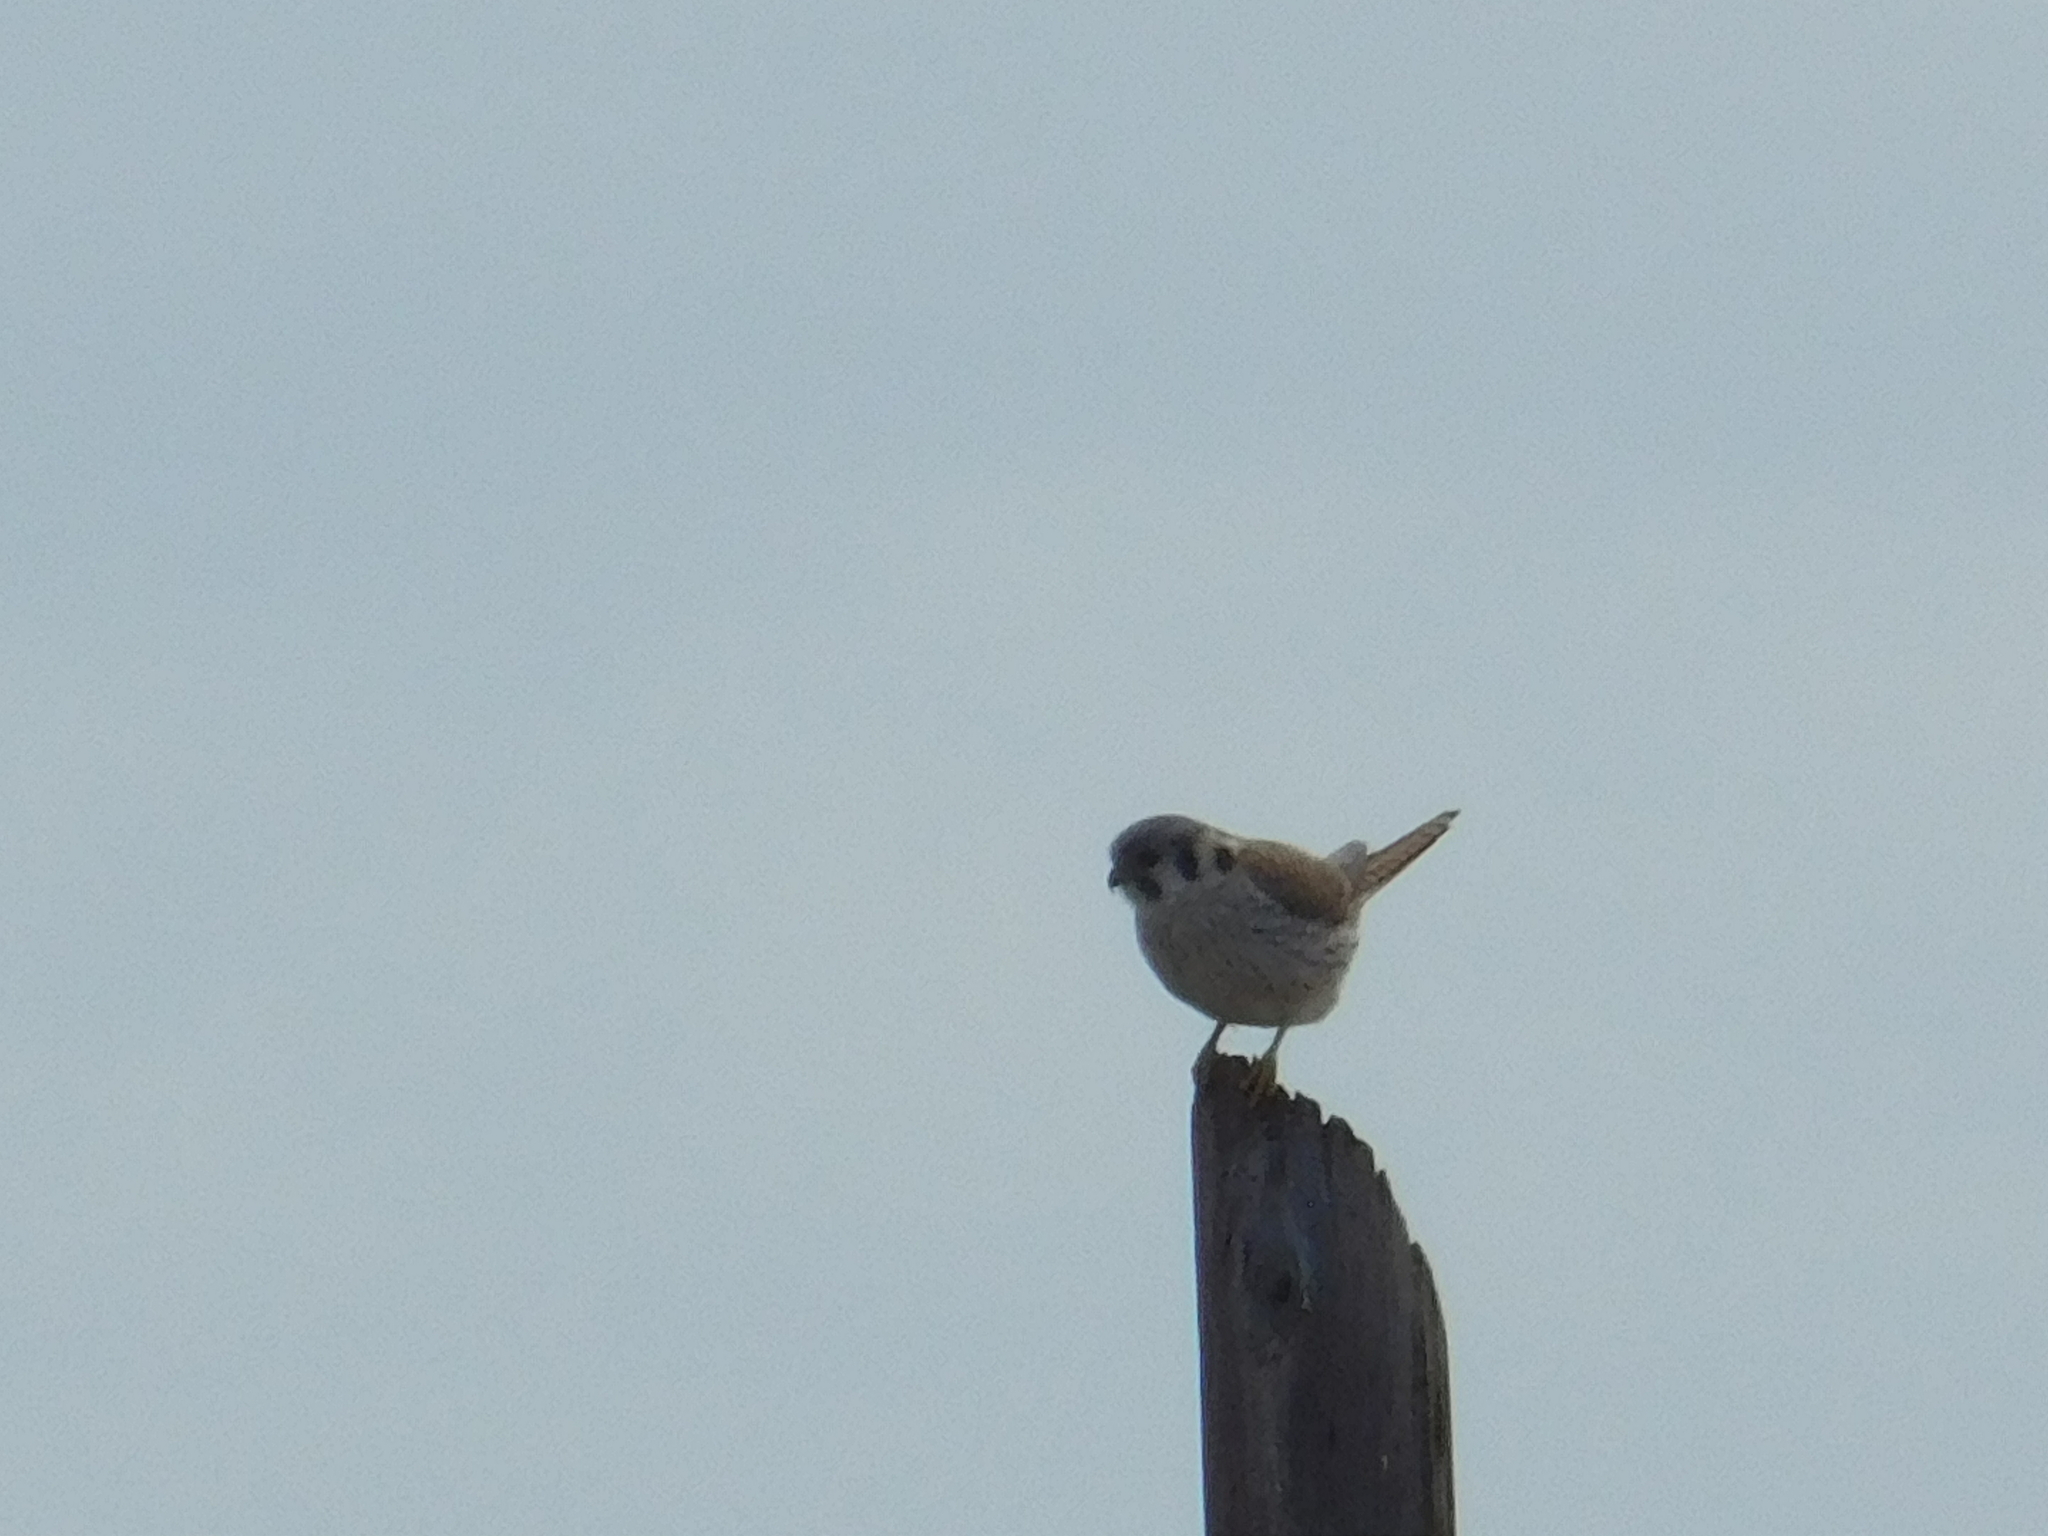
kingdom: Animalia
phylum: Chordata
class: Aves
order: Falconiformes
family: Falconidae
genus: Falco
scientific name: Falco sparverius
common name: American kestrel
